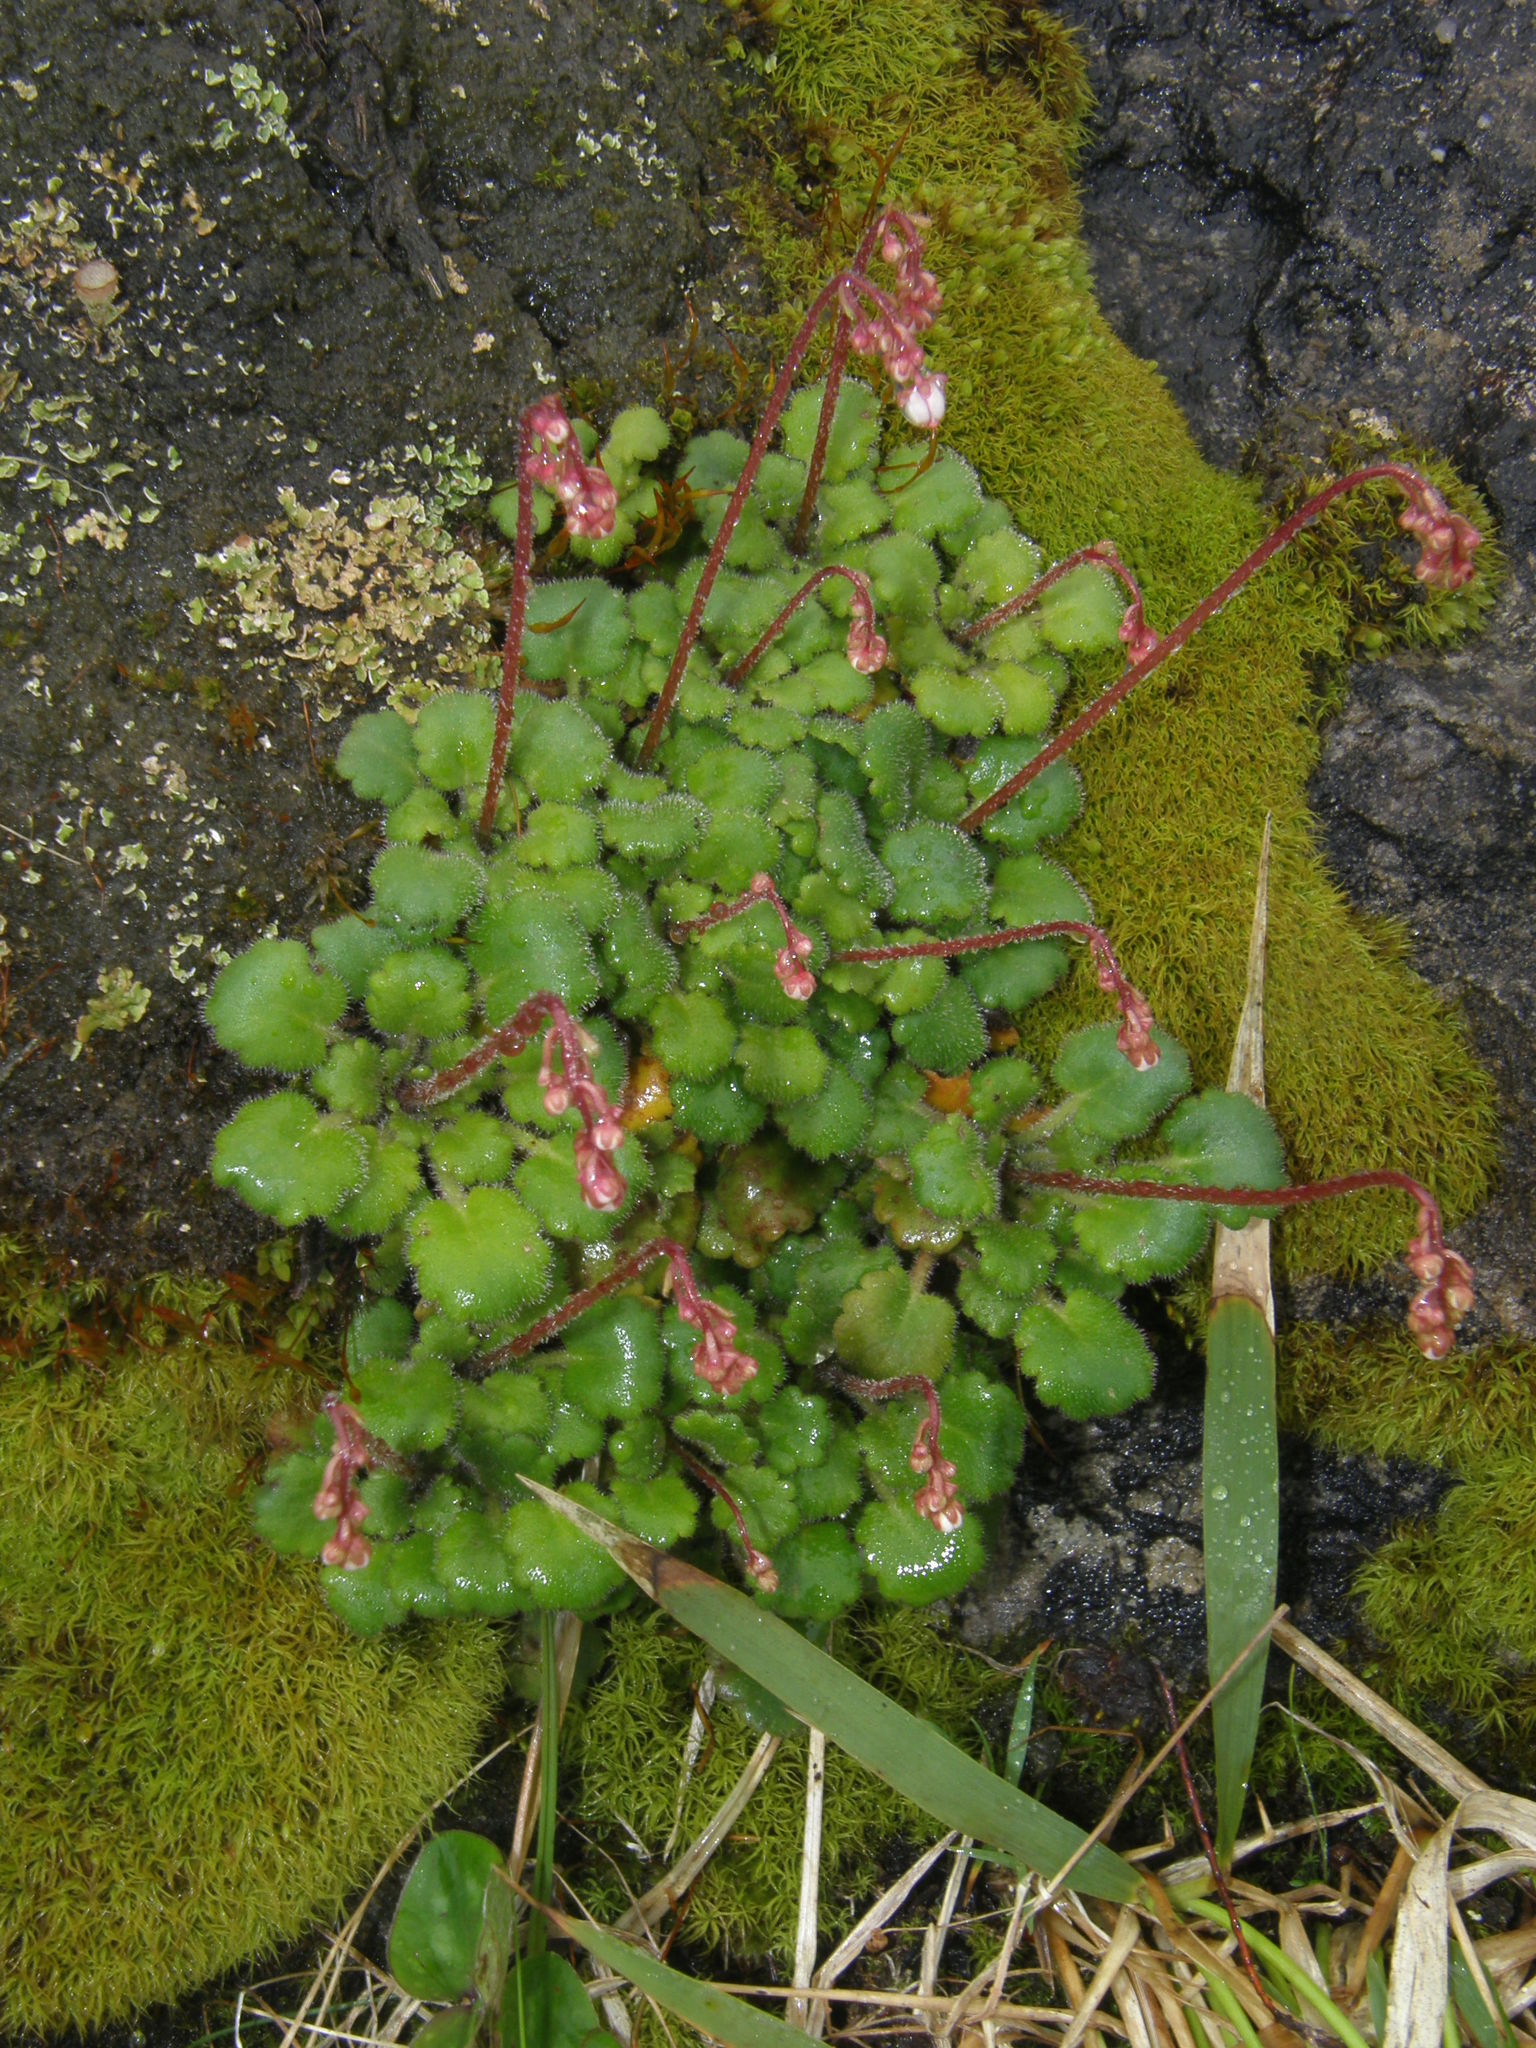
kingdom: Plantae
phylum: Tracheophyta
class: Magnoliopsida
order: Saxifragales
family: Saxifragaceae
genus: Saxifraga
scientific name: Saxifraga hirsuta
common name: Kidney saxifrage
